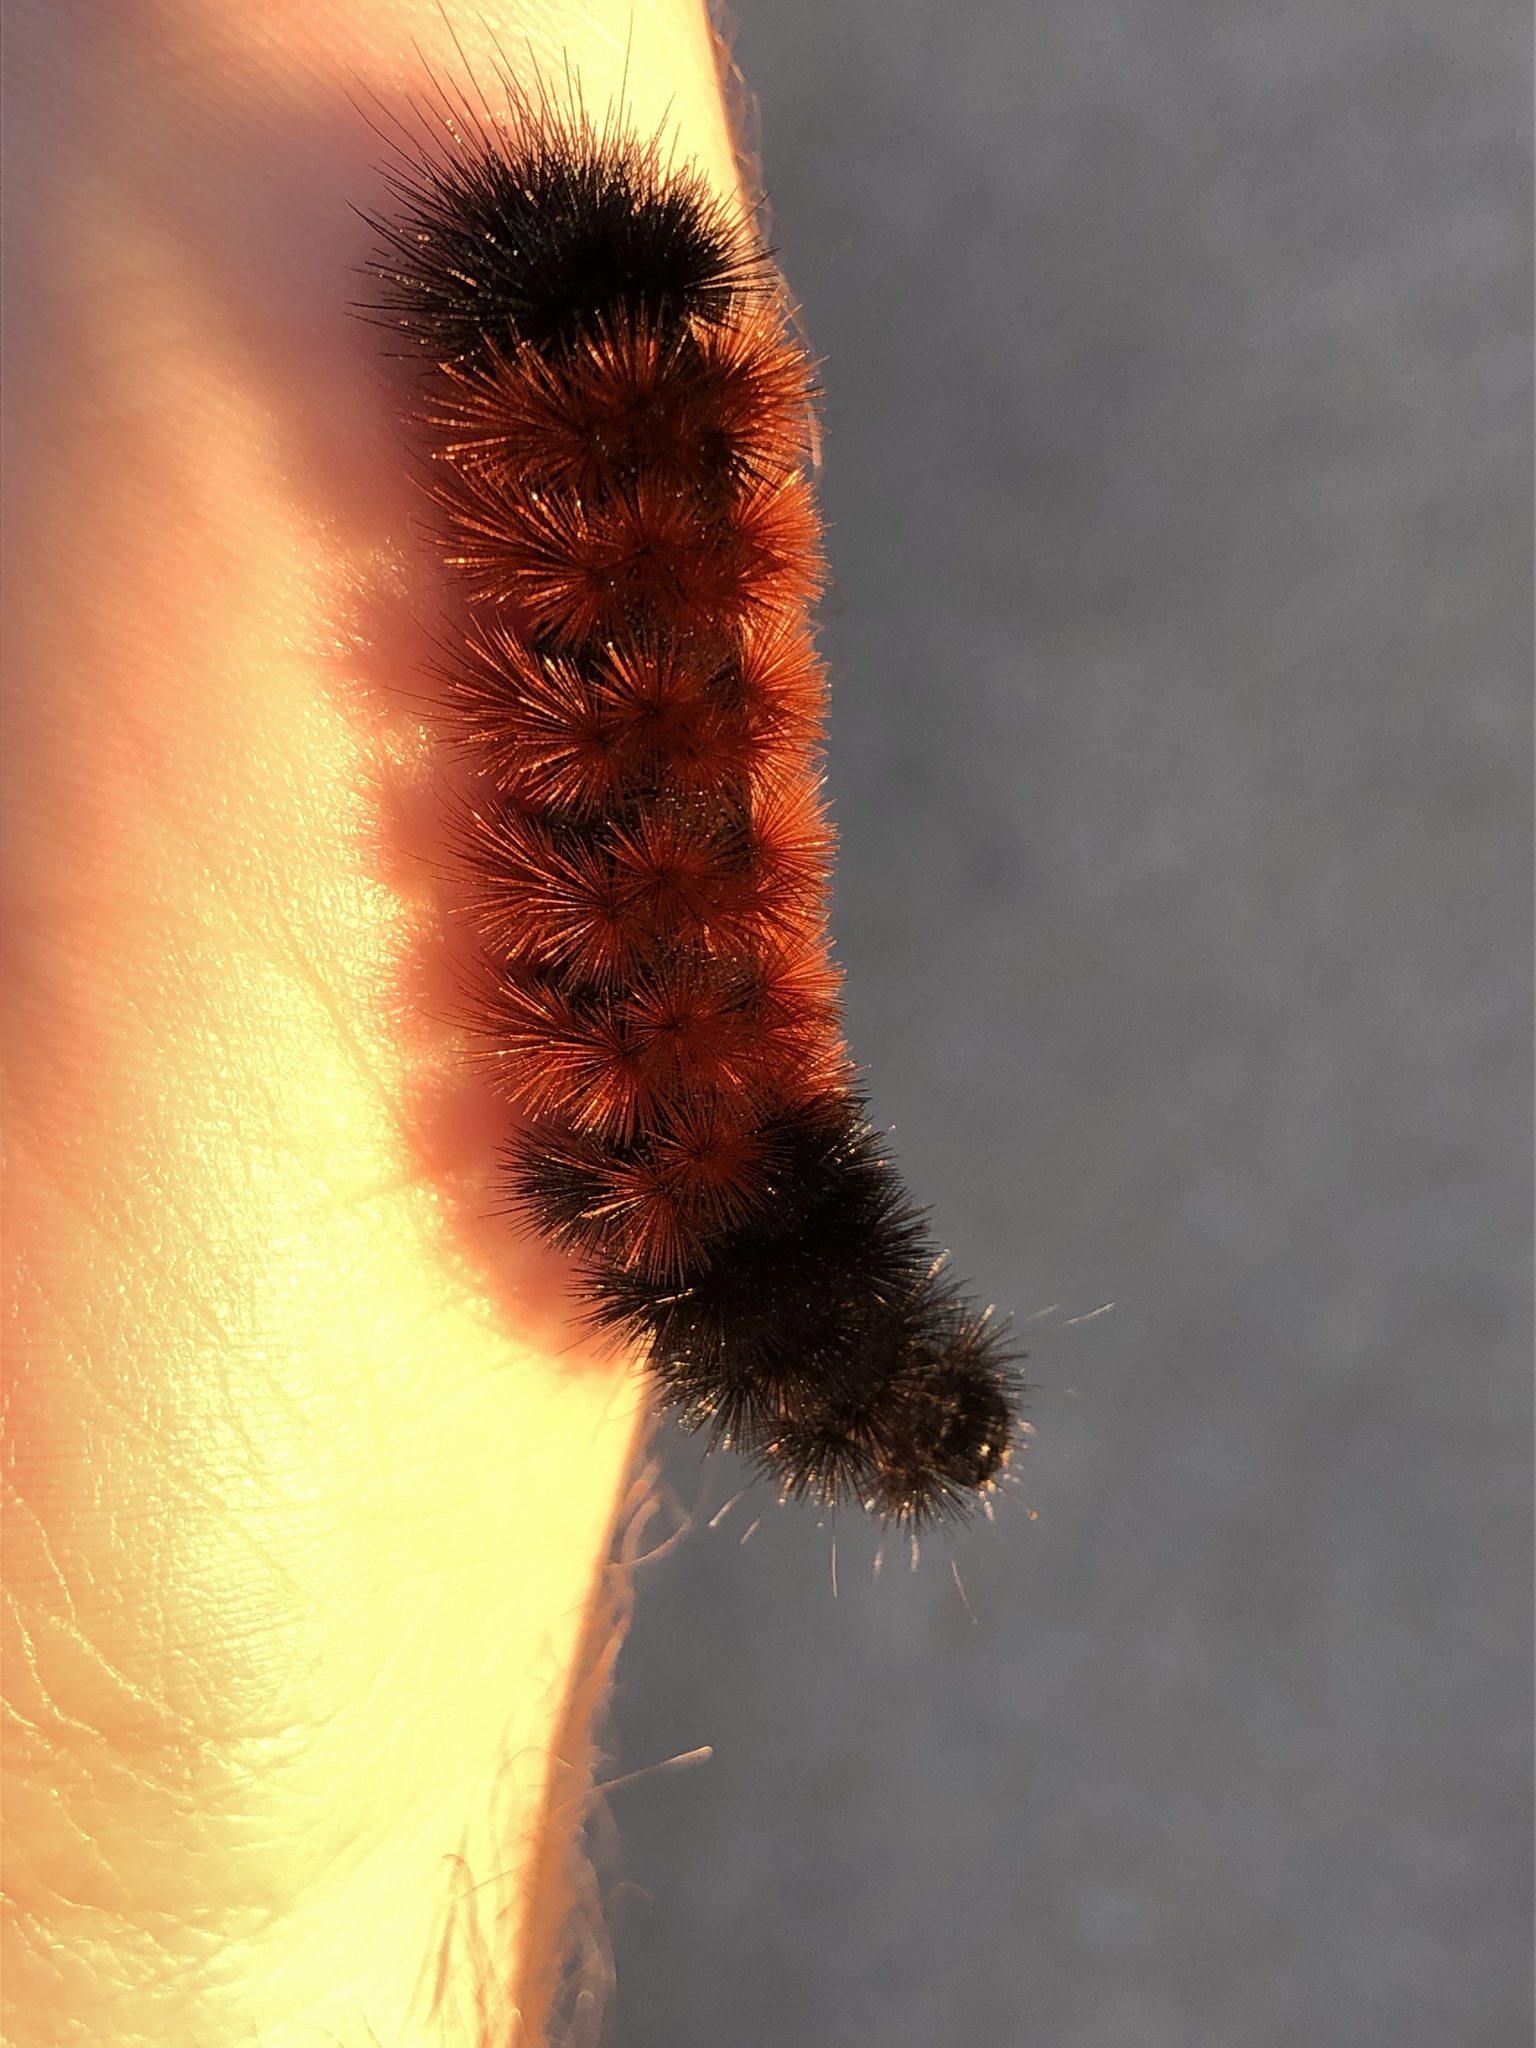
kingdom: Animalia
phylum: Arthropoda
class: Insecta
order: Lepidoptera
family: Erebidae
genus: Pyrrharctia
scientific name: Pyrrharctia isabella
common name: Isabella tiger moth
